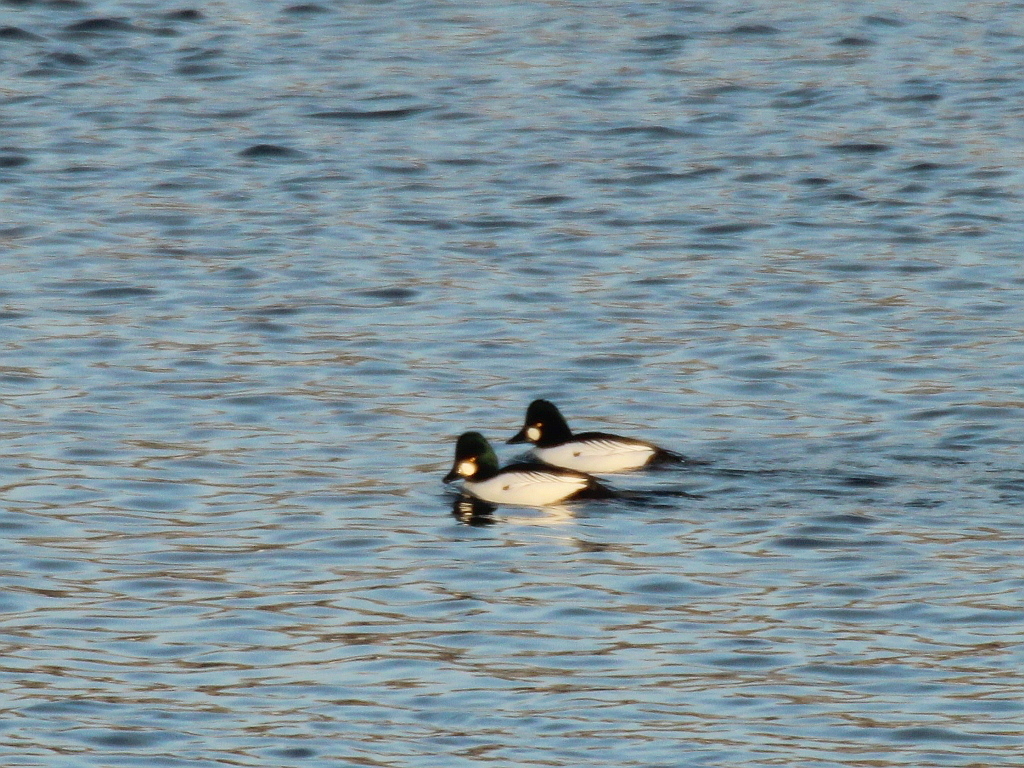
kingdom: Animalia
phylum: Chordata
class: Aves
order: Anseriformes
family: Anatidae
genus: Bucephala
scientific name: Bucephala clangula
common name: Common goldeneye
